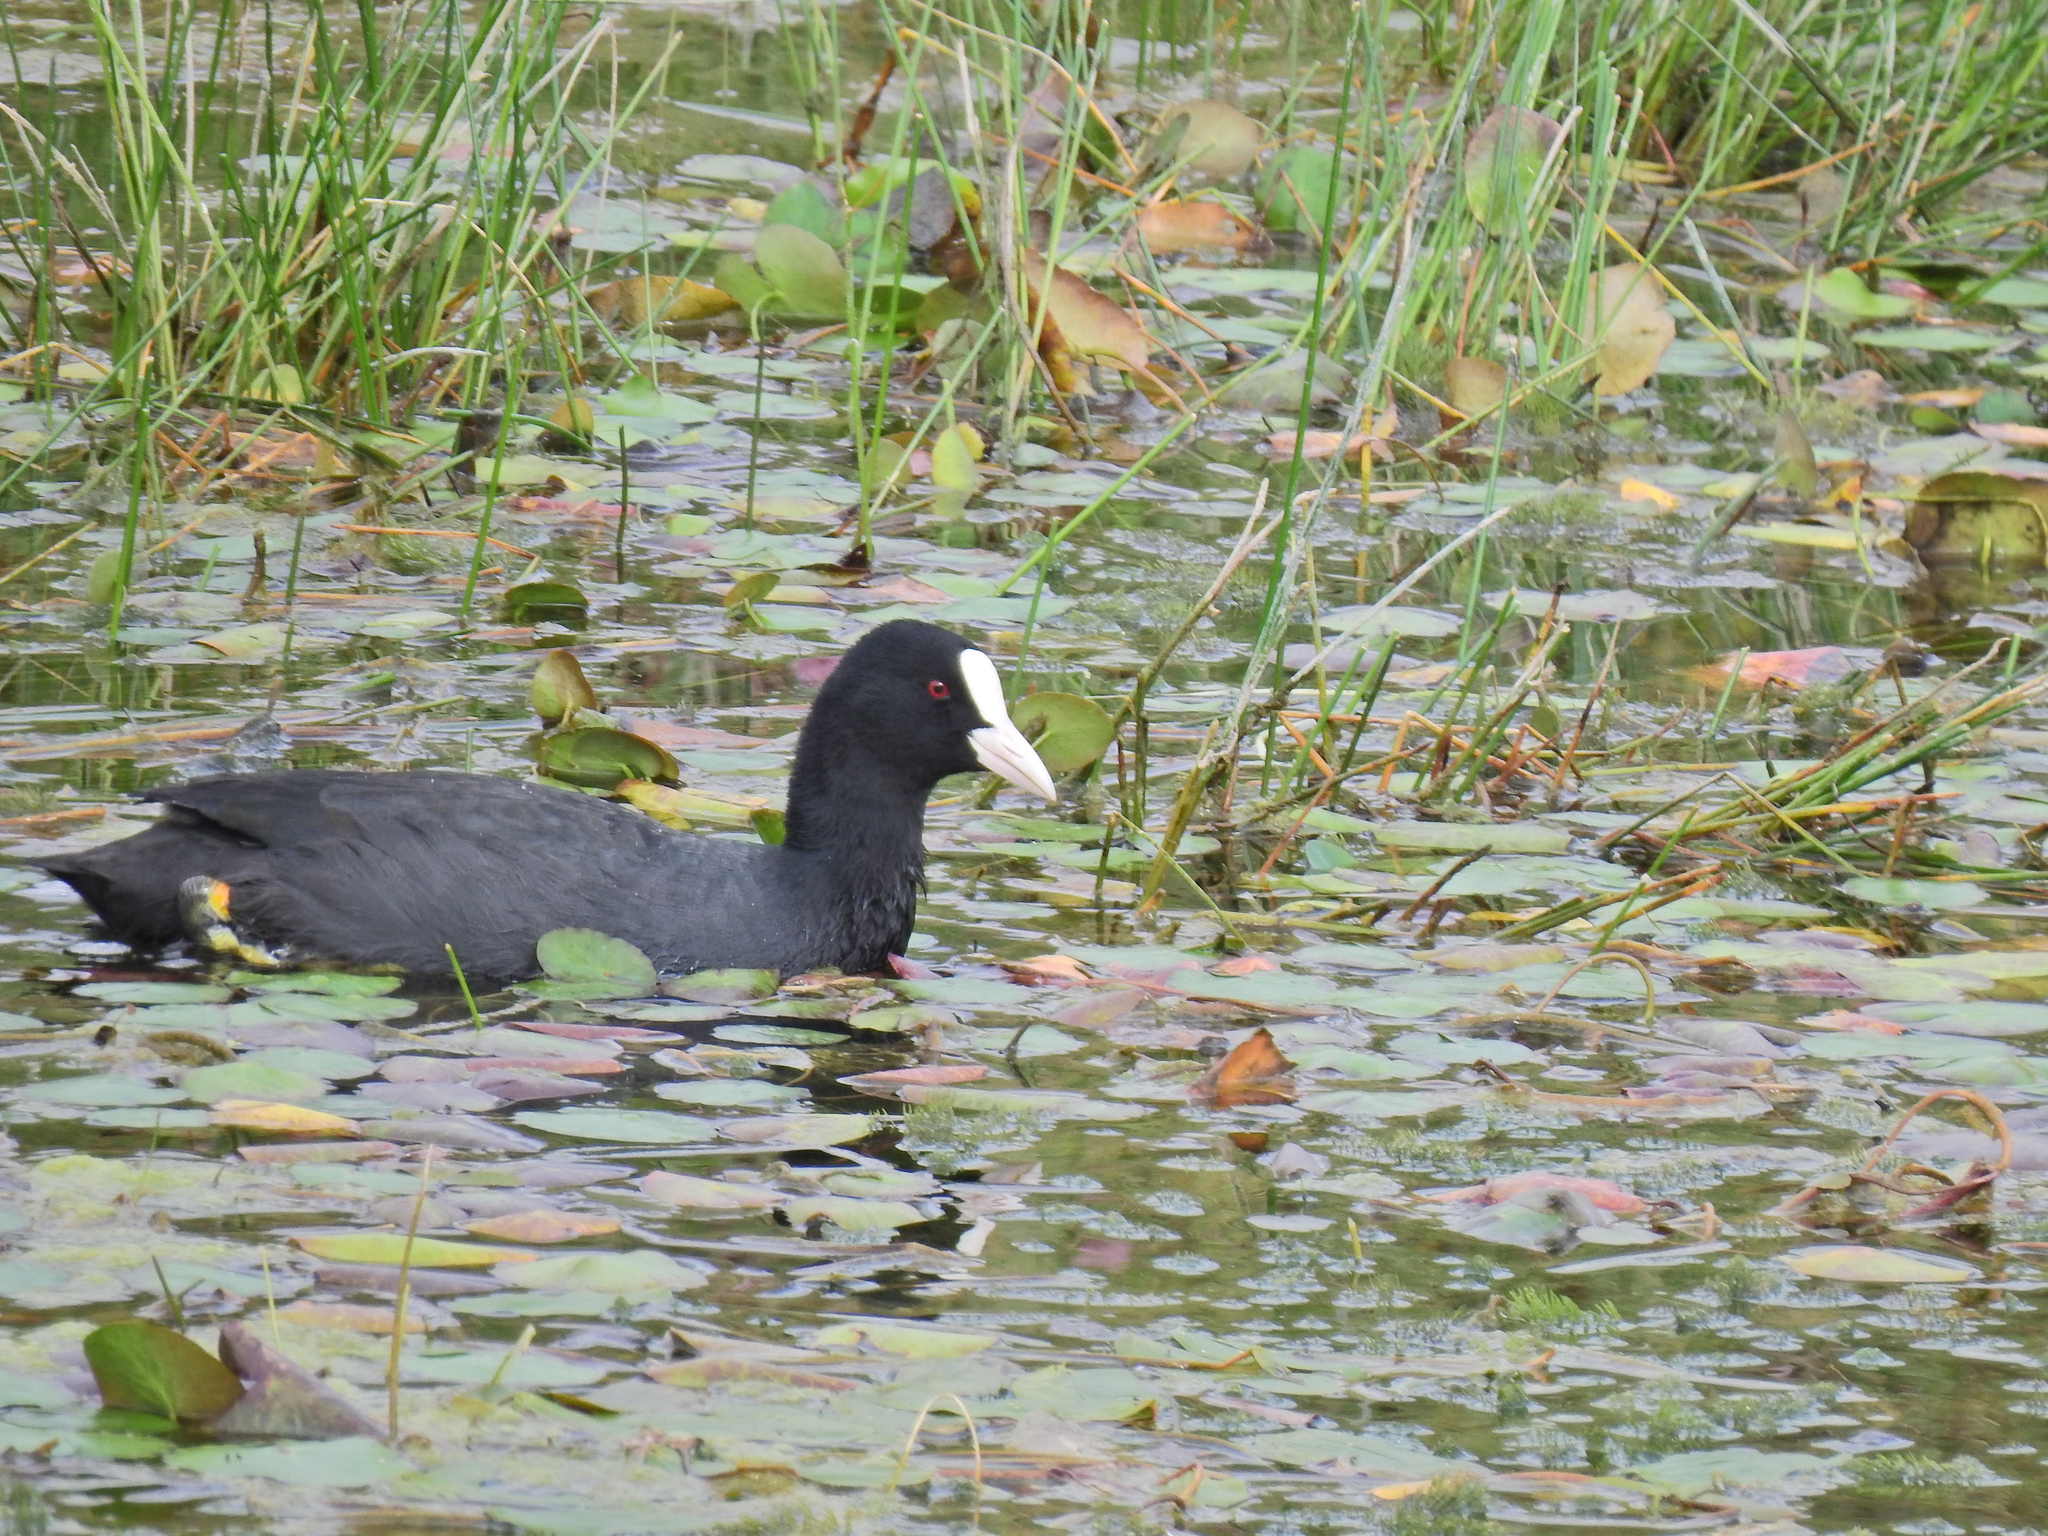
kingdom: Animalia
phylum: Chordata
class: Aves
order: Gruiformes
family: Rallidae
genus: Fulica
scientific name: Fulica atra
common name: Eurasian coot
